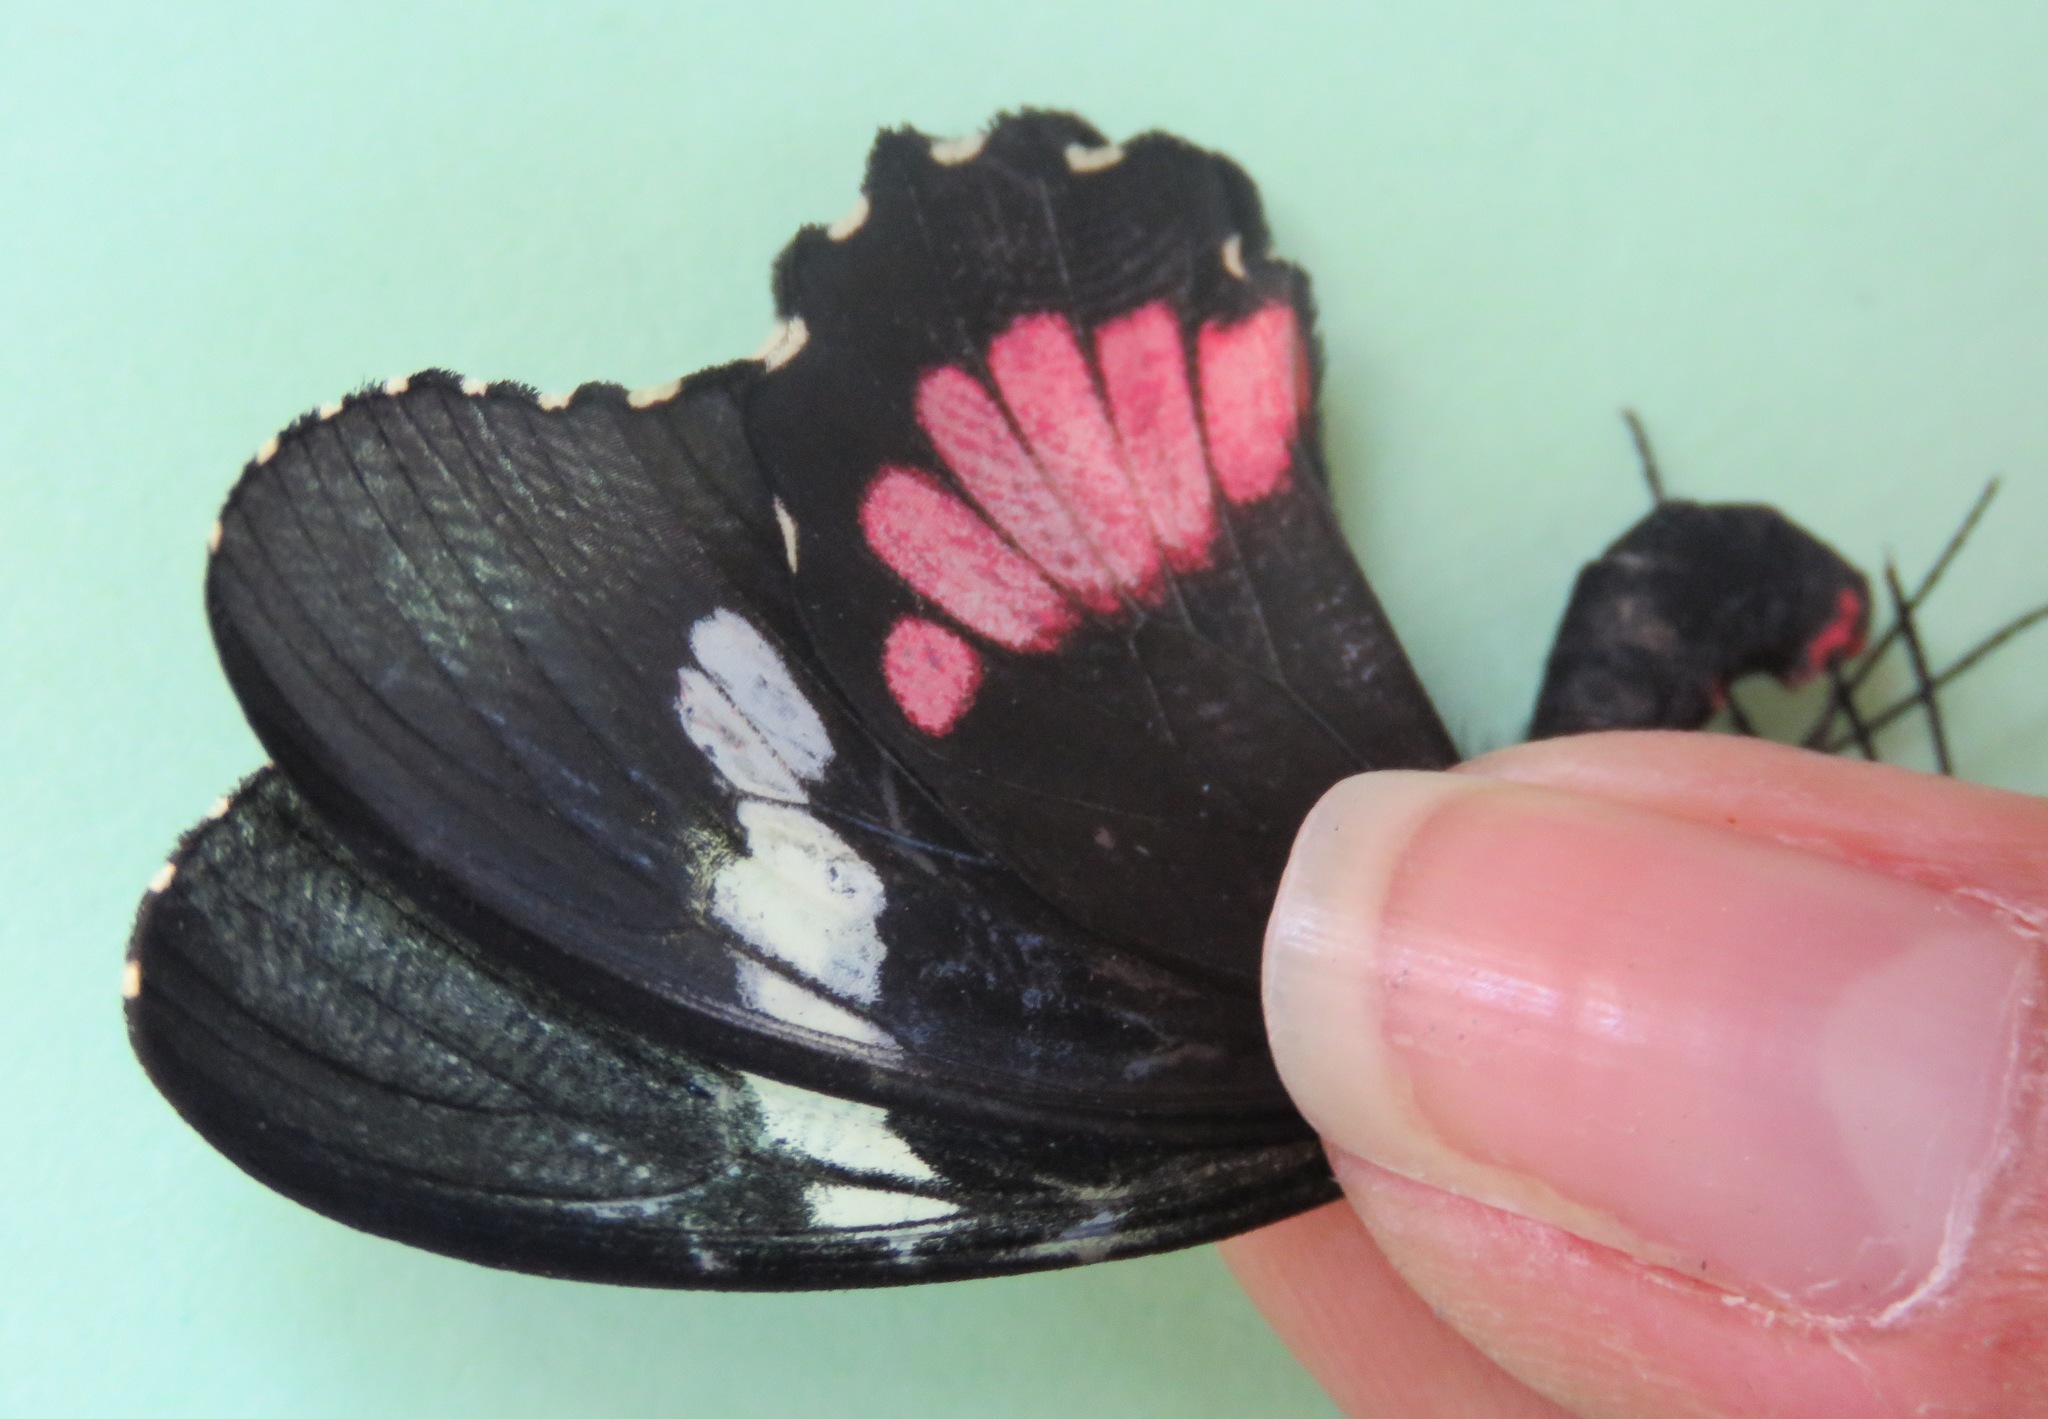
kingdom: Animalia
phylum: Arthropoda
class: Insecta
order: Lepidoptera
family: Papilionidae
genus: Parides
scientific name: Parides iphidamas
